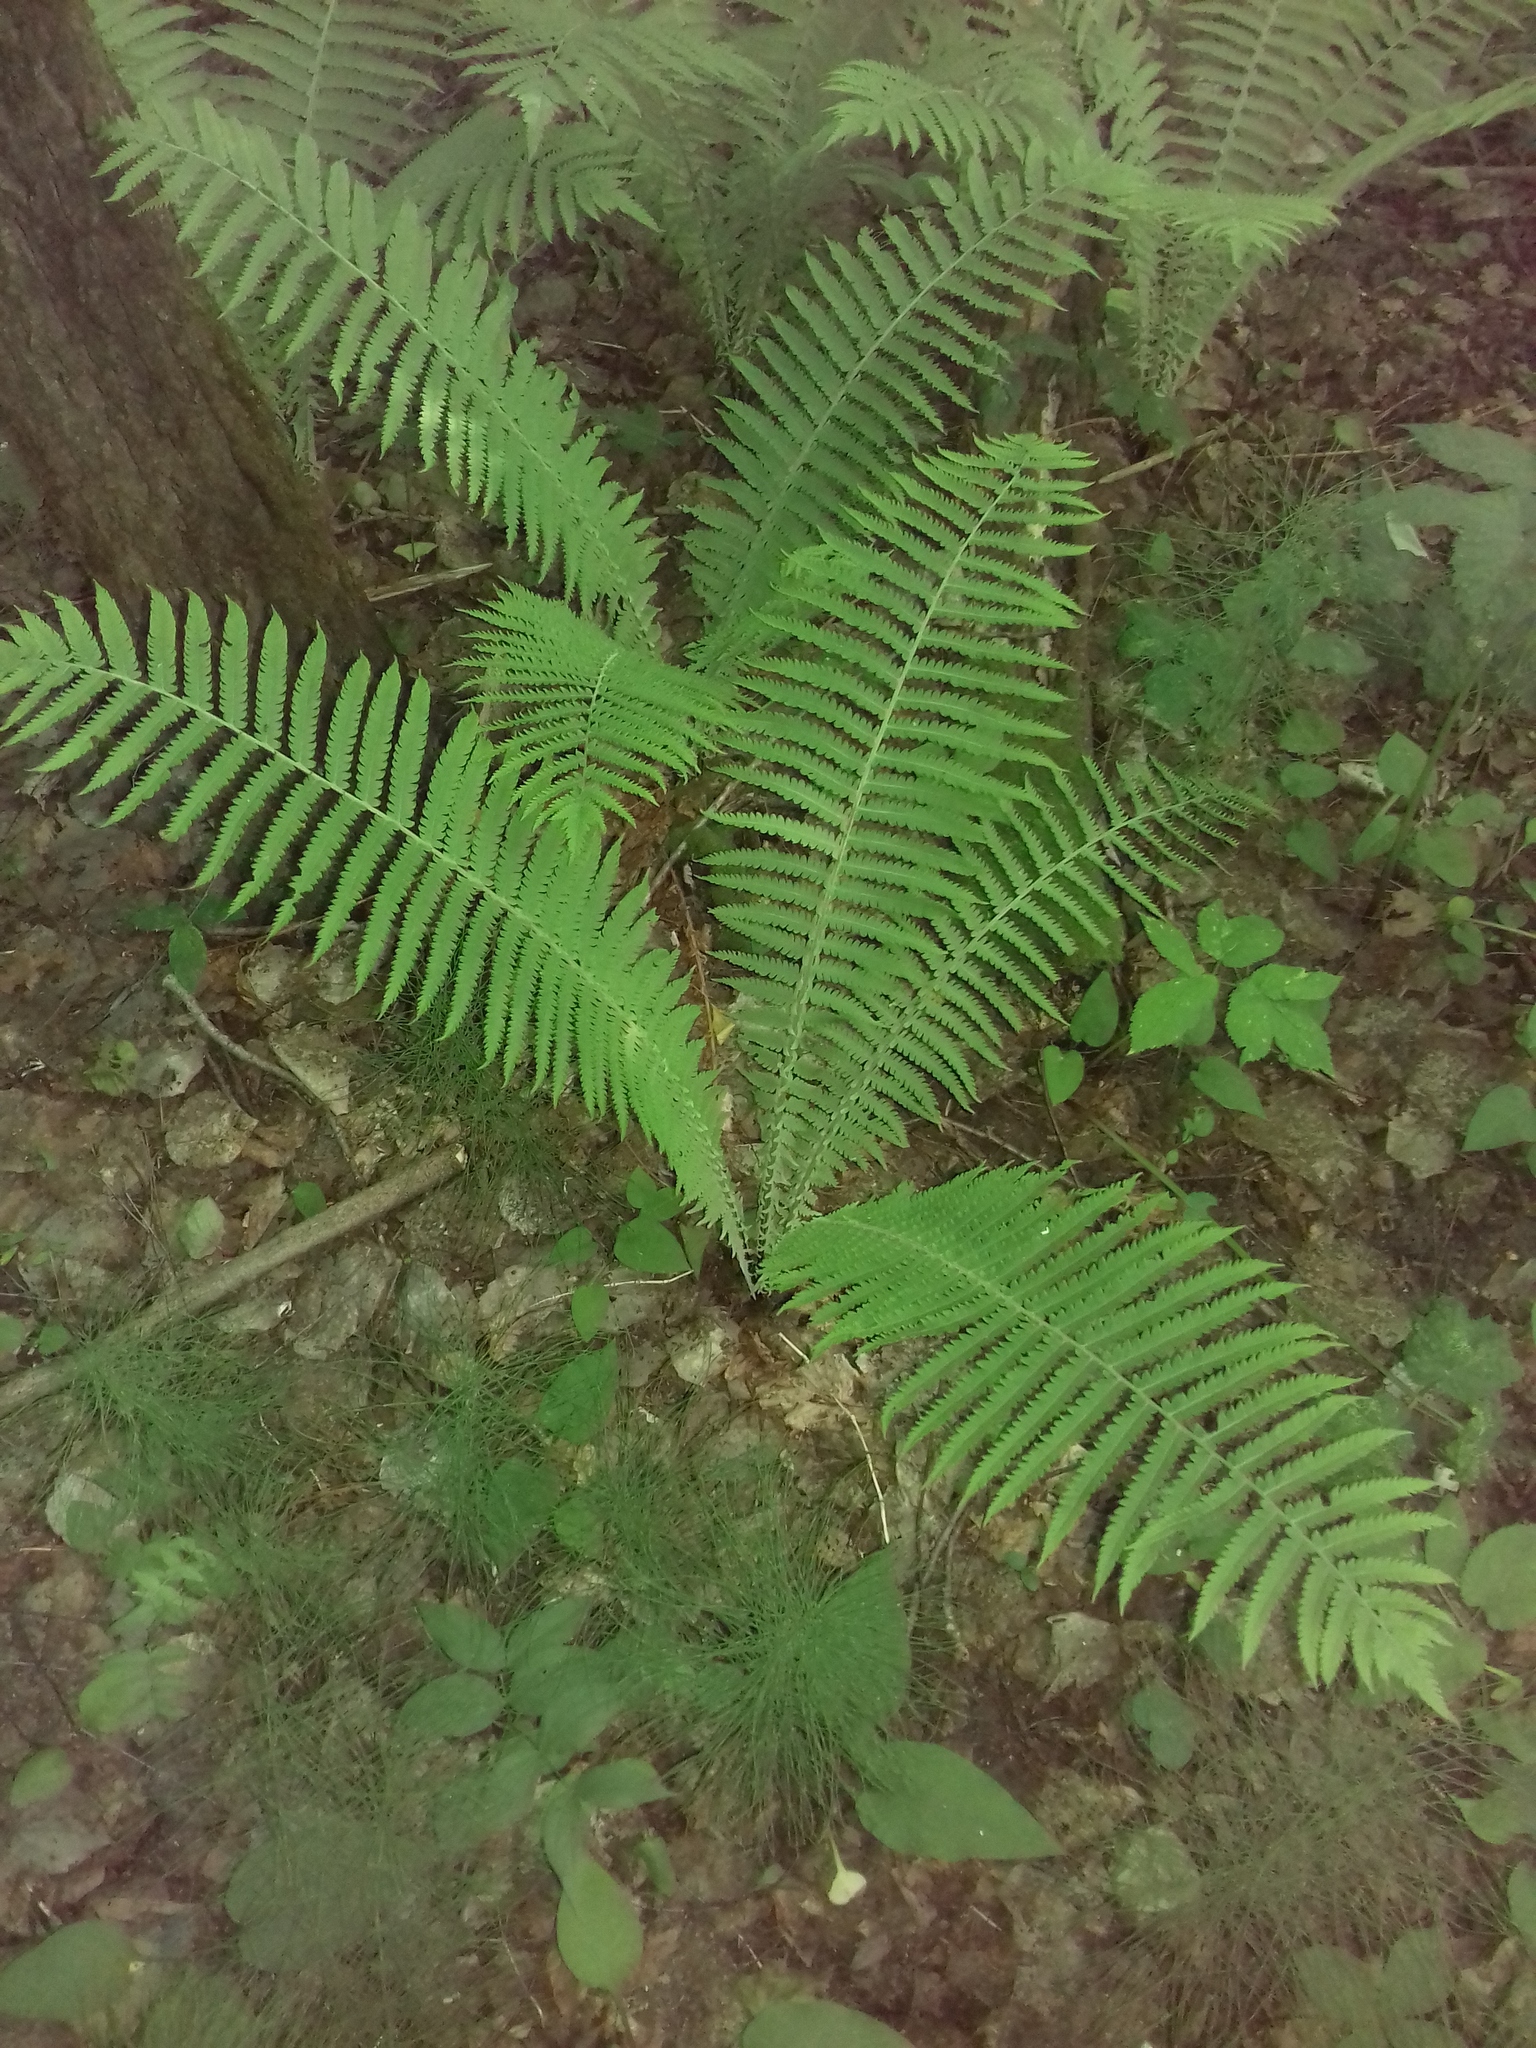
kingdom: Plantae
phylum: Tracheophyta
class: Polypodiopsida
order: Polypodiales
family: Onocleaceae
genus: Matteuccia
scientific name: Matteuccia struthiopteris
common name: Ostrich fern
